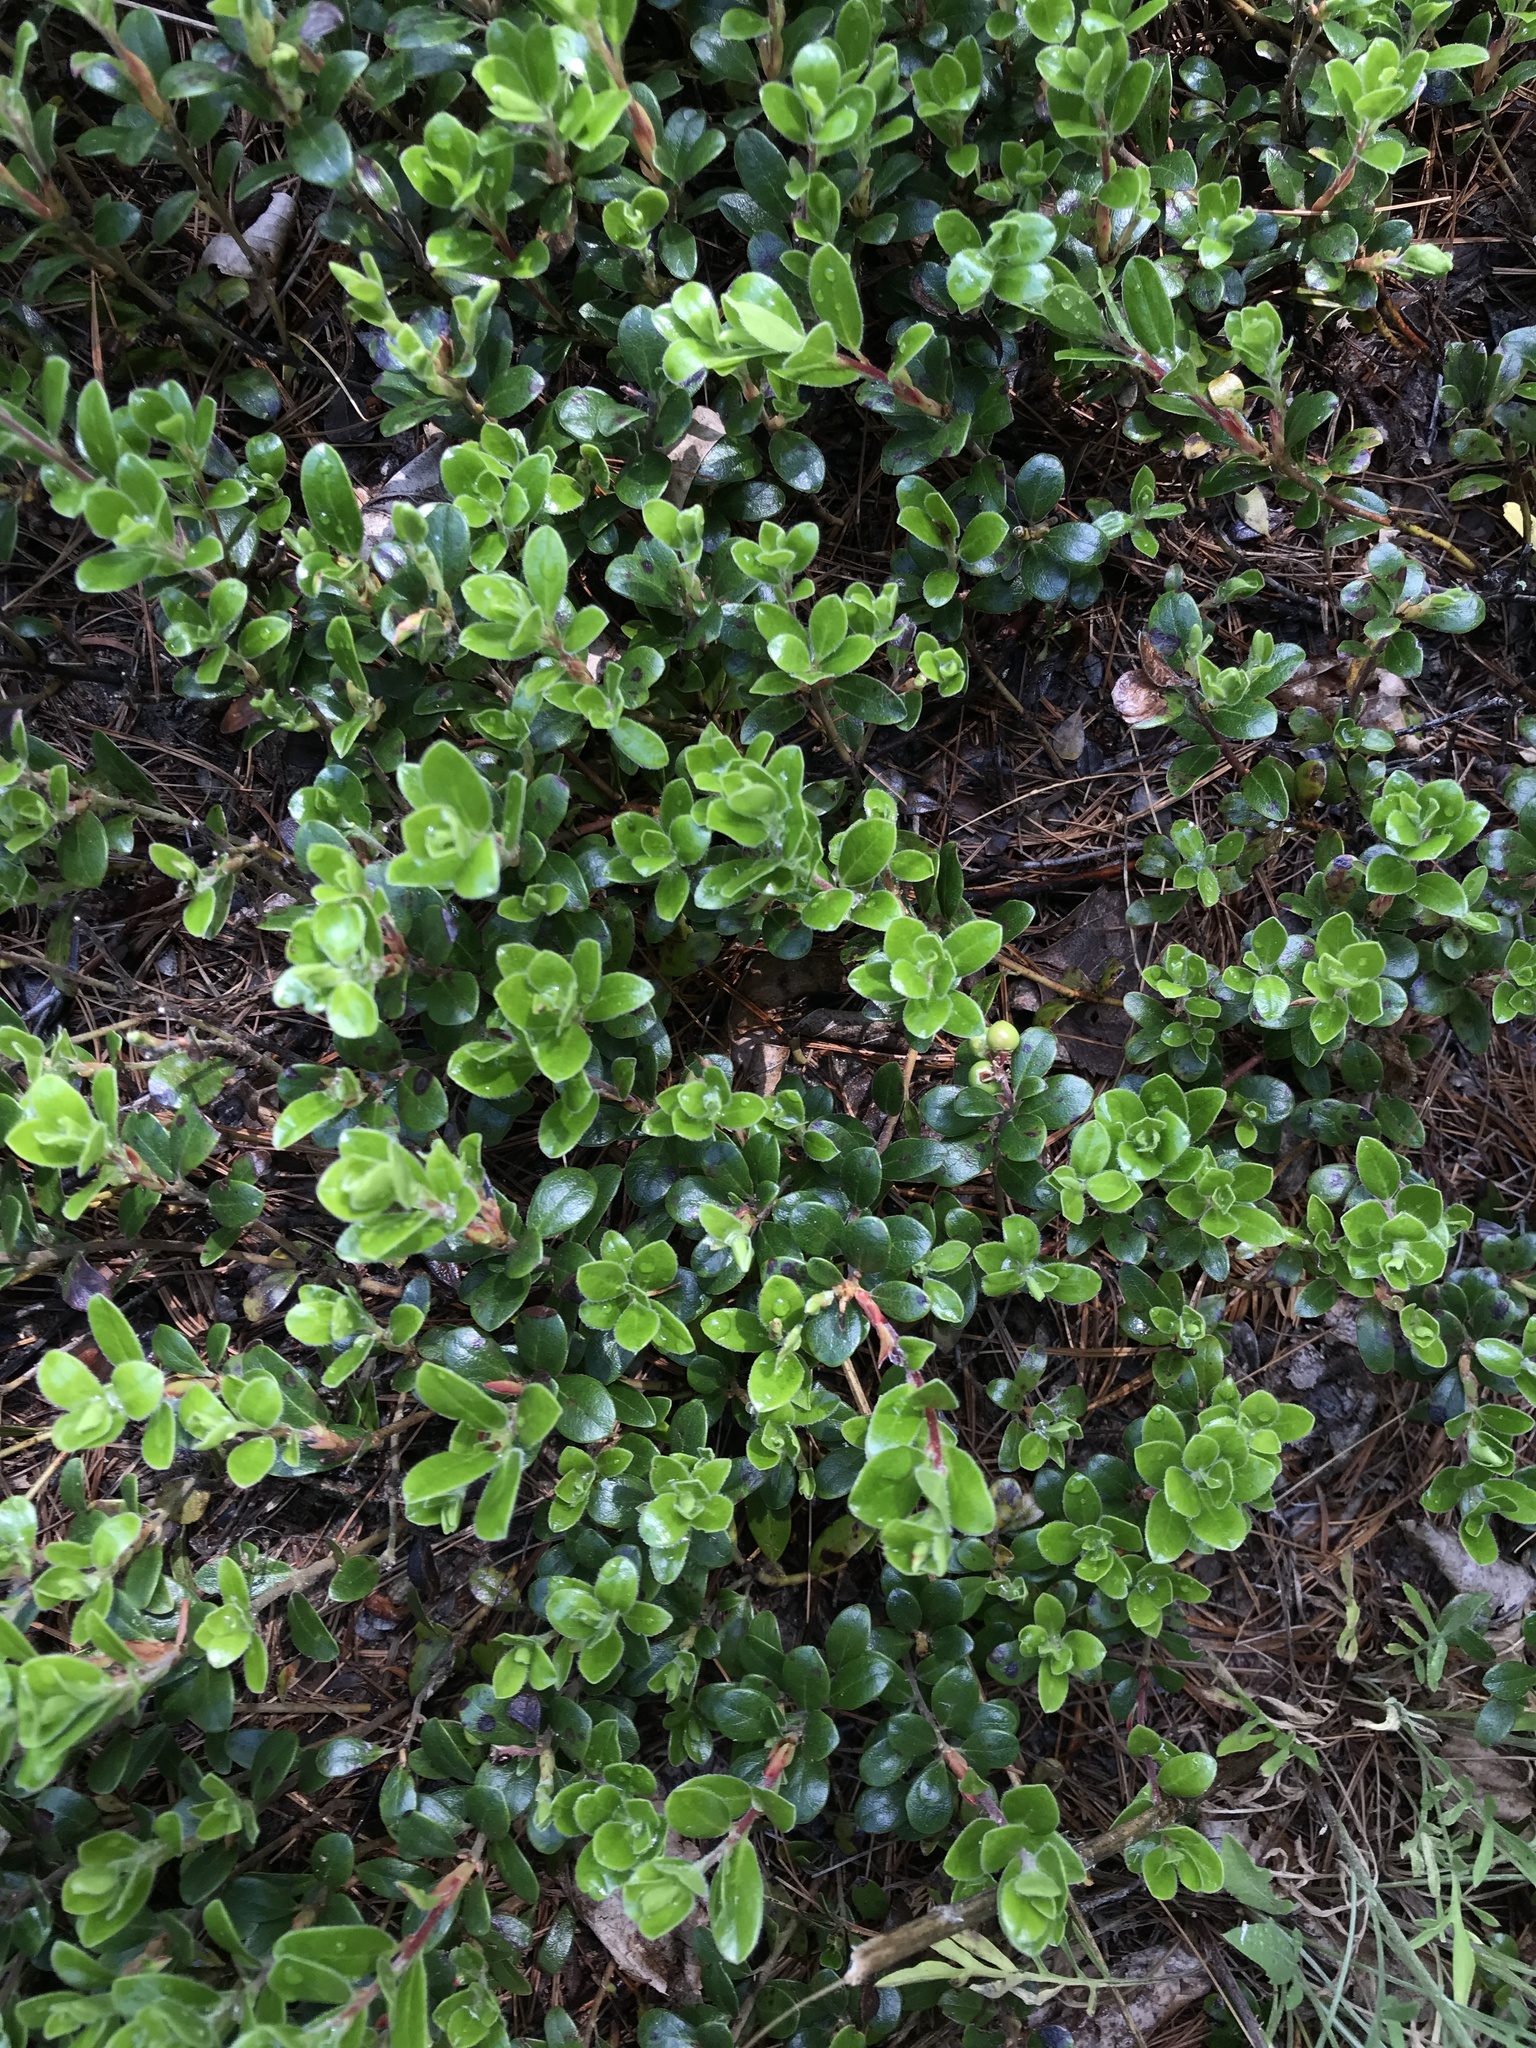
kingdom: Plantae
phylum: Tracheophyta
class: Magnoliopsida
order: Ericales
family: Ericaceae
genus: Arctostaphylos
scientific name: Arctostaphylos uva-ursi
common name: Bearberry
